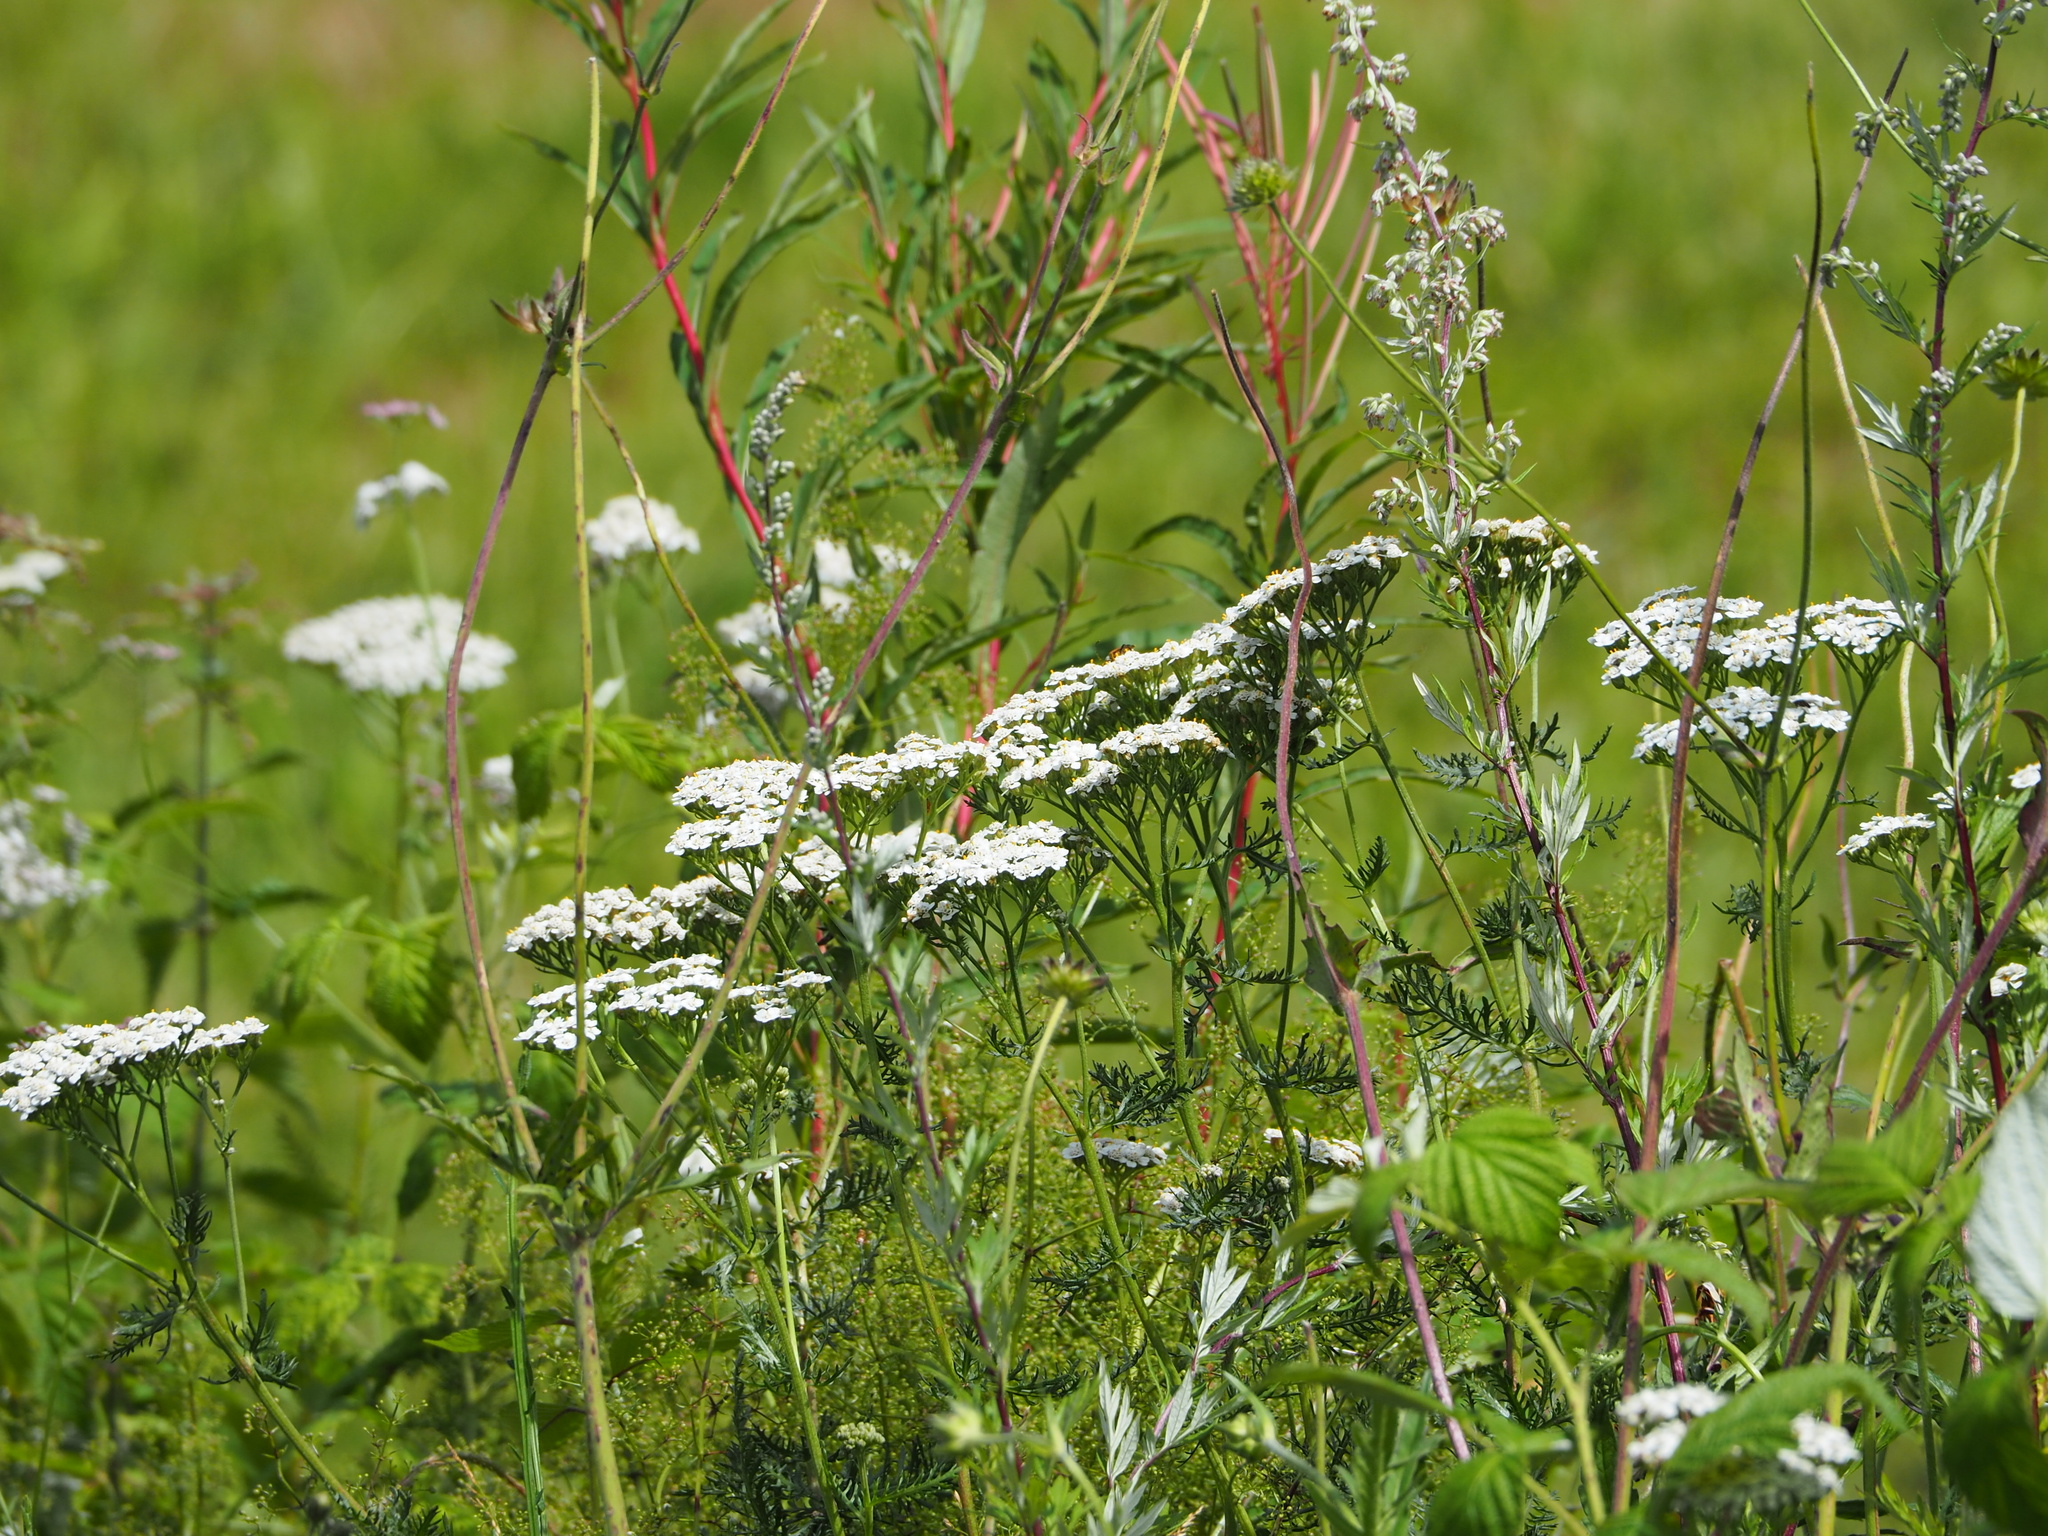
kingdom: Plantae
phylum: Tracheophyta
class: Magnoliopsida
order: Asterales
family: Asteraceae
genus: Achillea
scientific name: Achillea millefolium
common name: Yarrow
